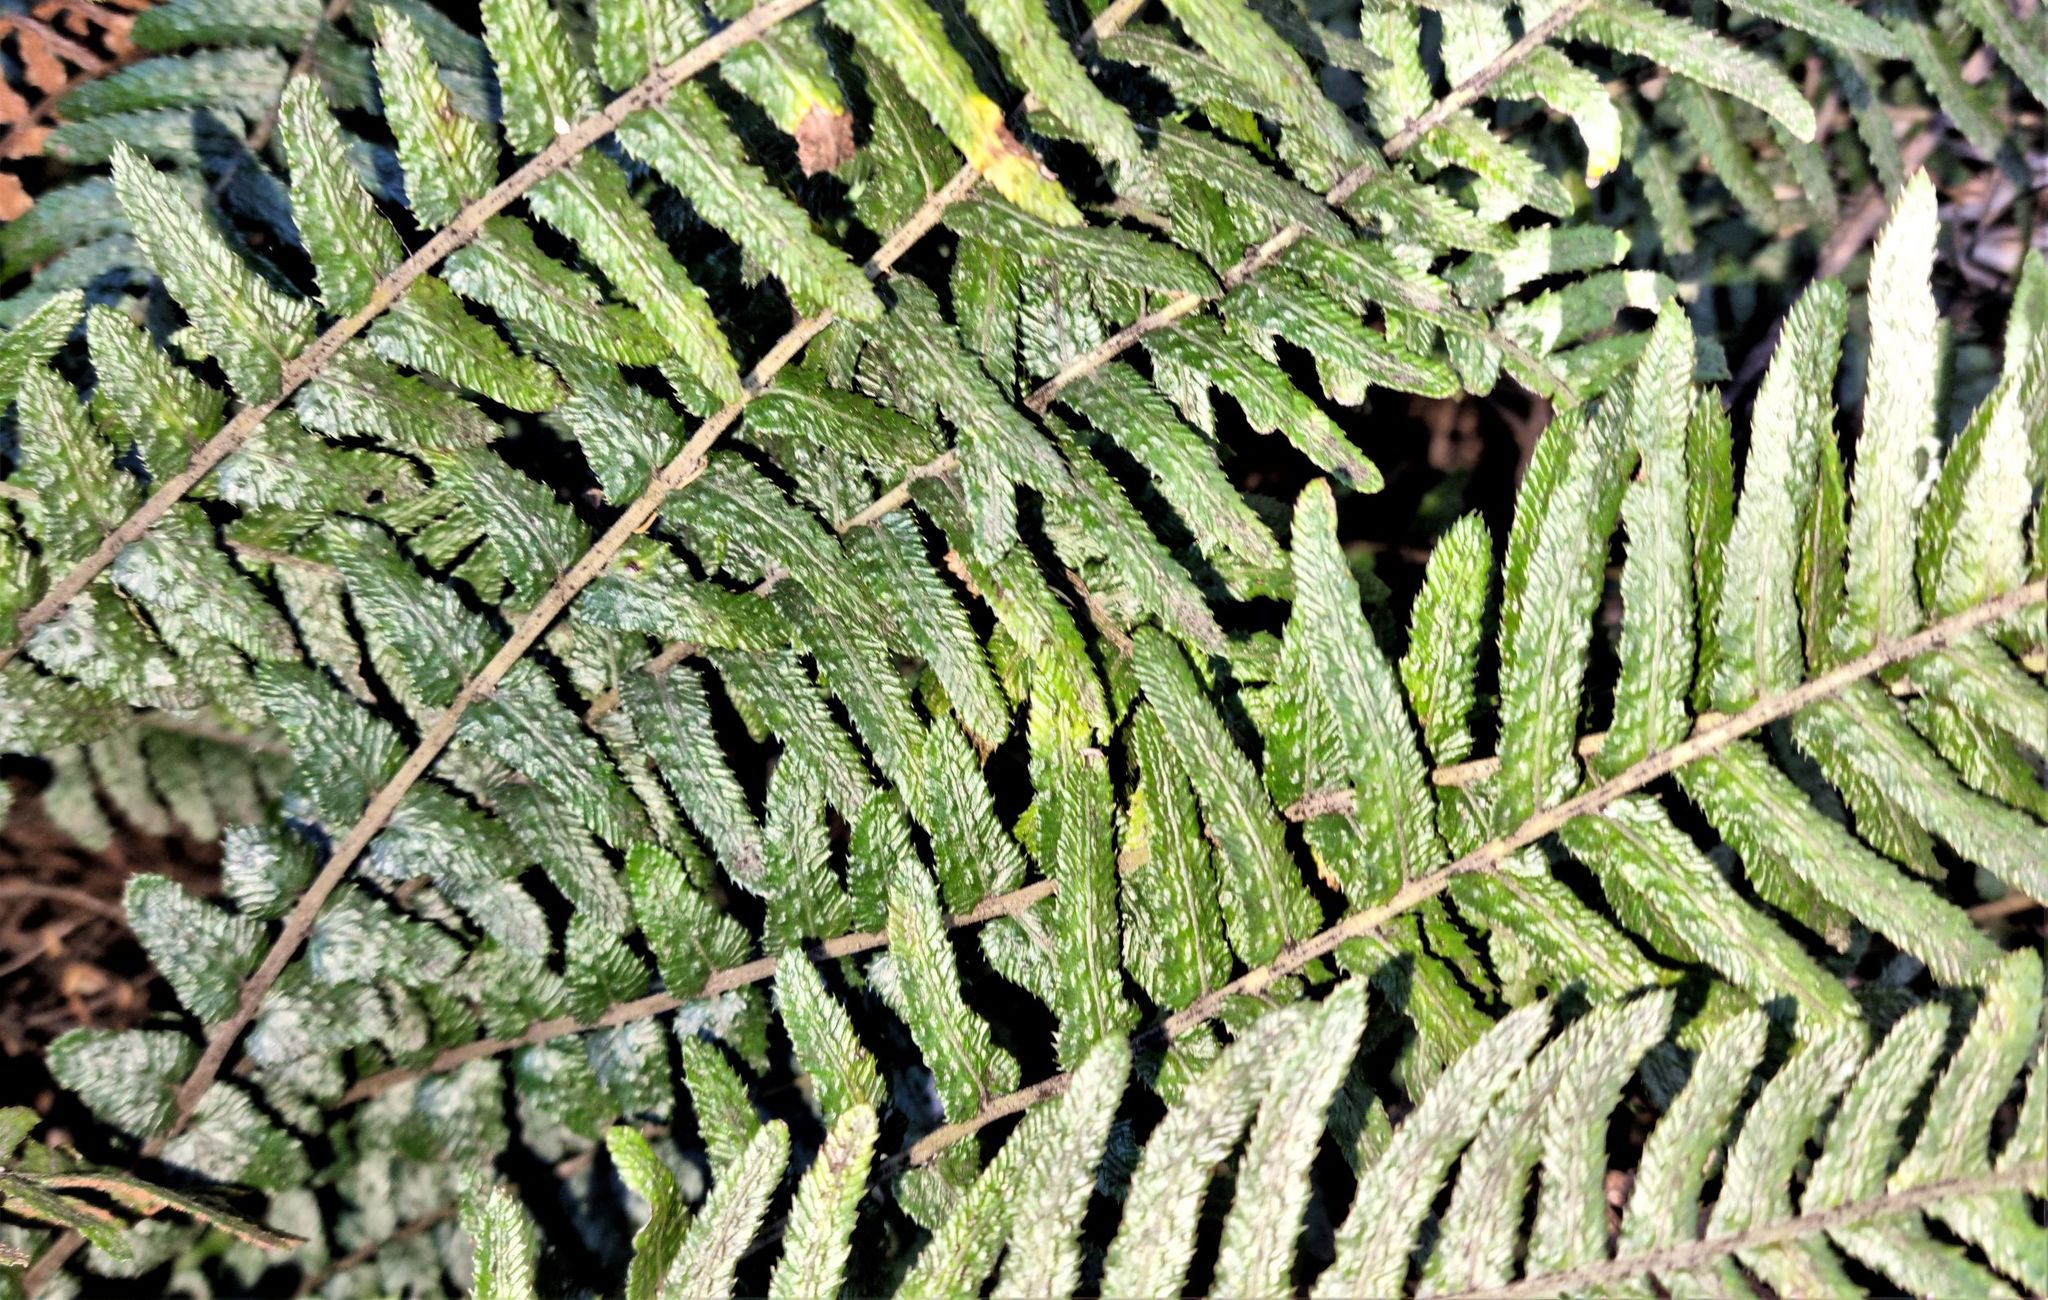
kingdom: Plantae
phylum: Tracheophyta
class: Polypodiopsida
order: Polypodiales
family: Blechnaceae
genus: Doodia
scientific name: Doodia australis
